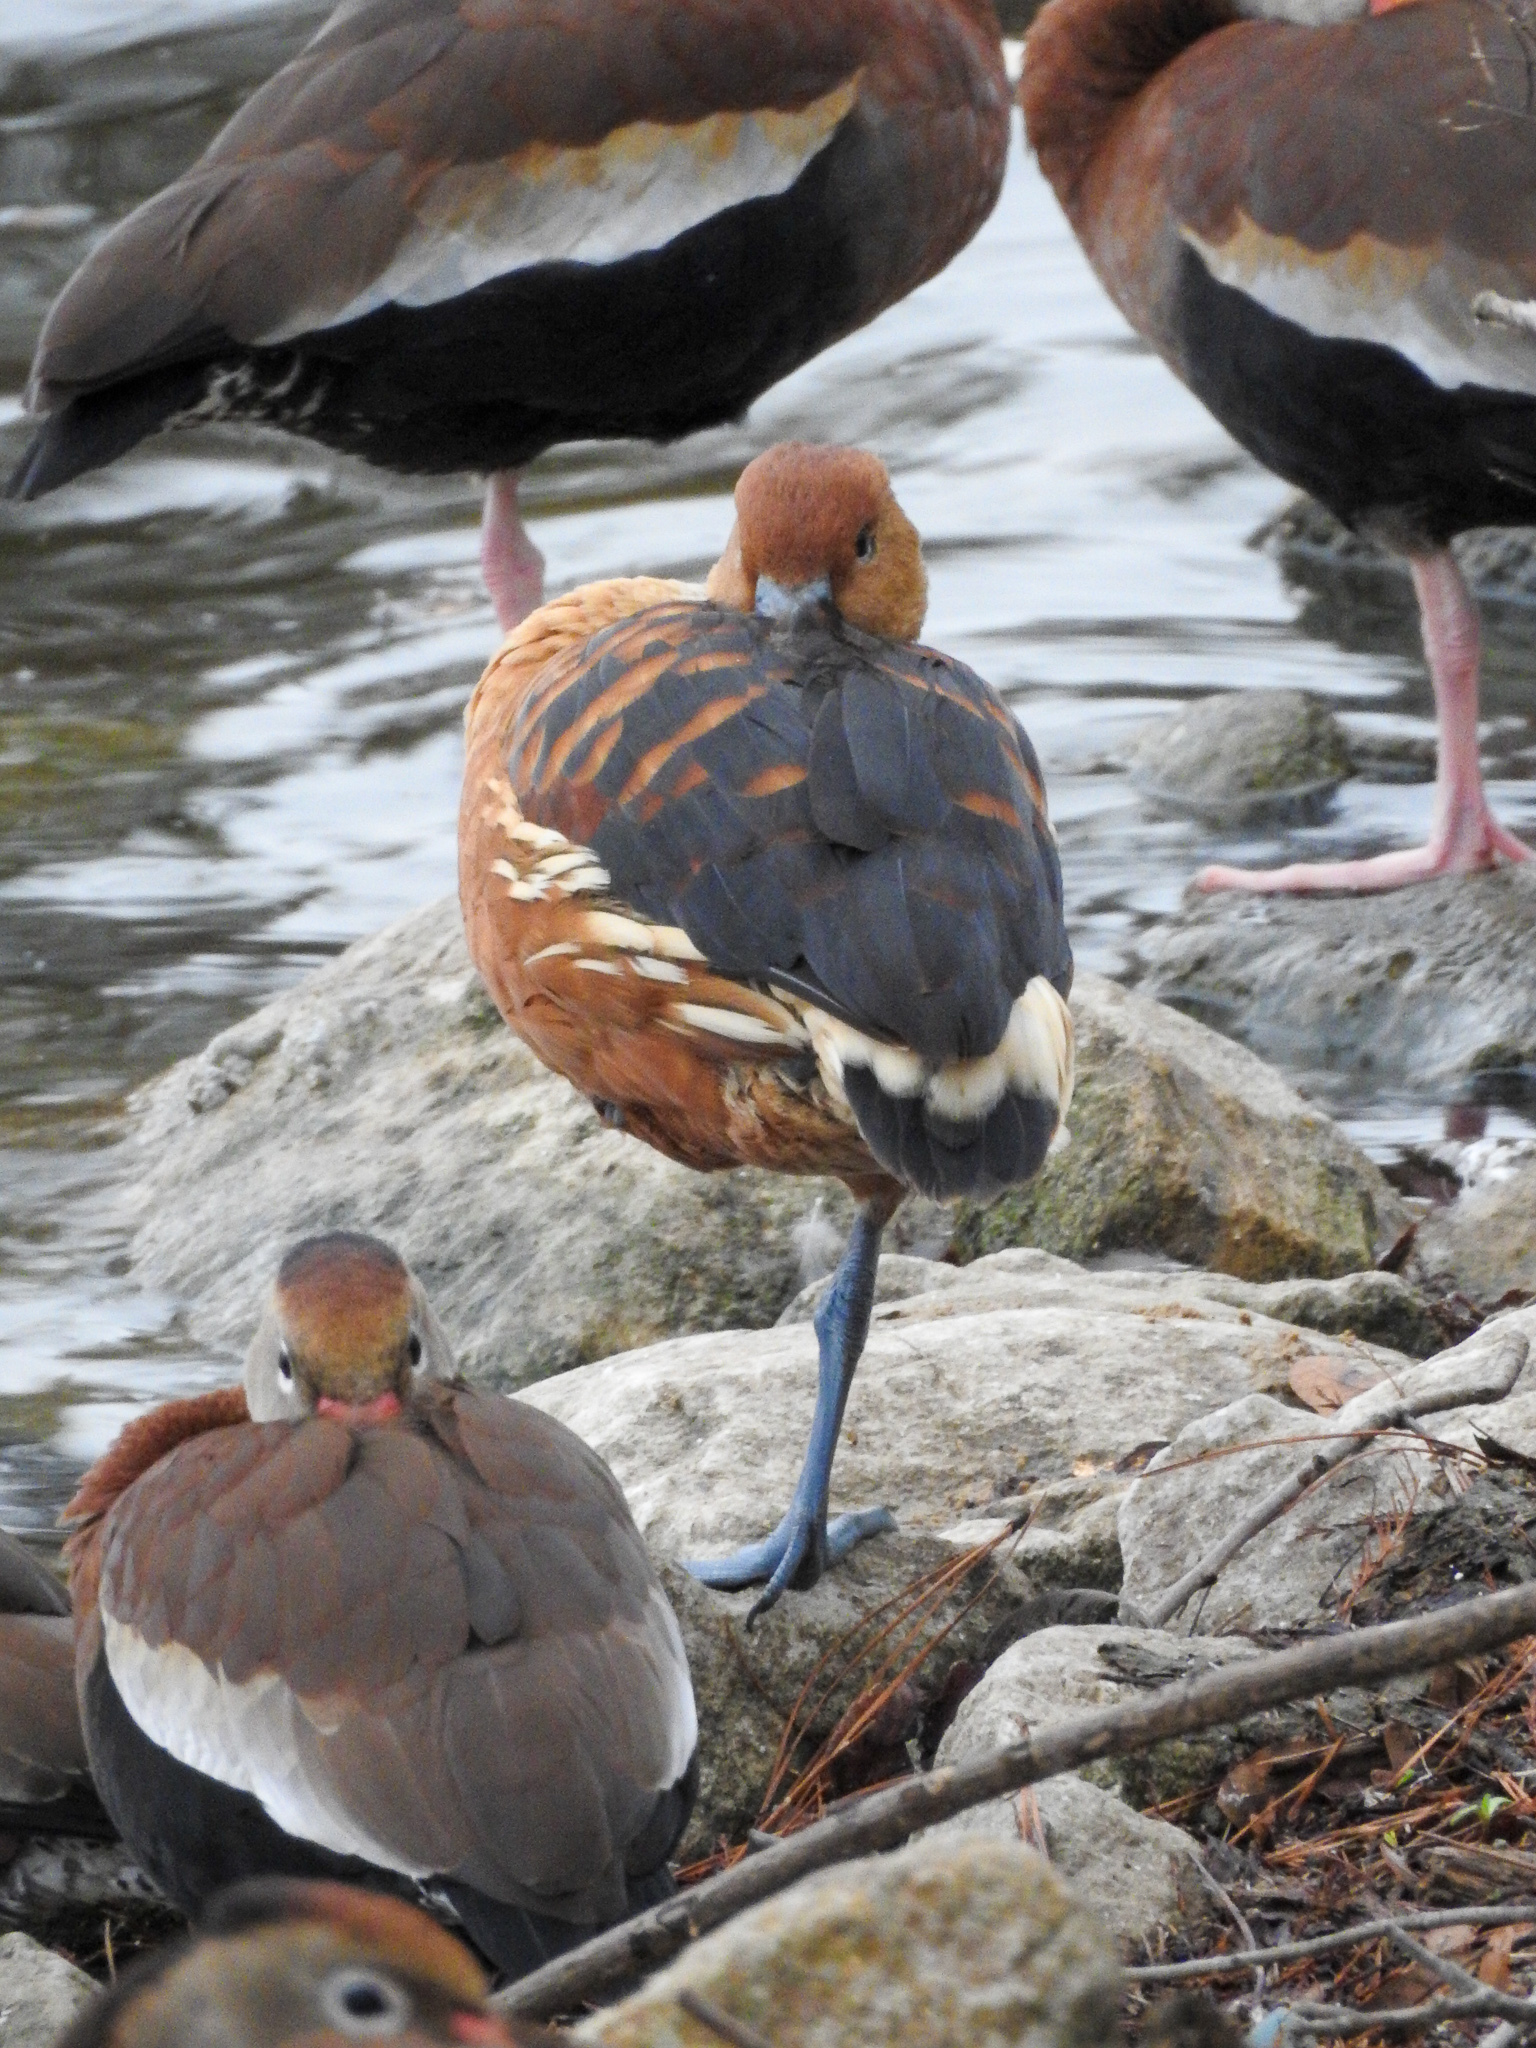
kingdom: Animalia
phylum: Chordata
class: Aves
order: Anseriformes
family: Anatidae
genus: Dendrocygna
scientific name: Dendrocygna bicolor
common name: Fulvous whistling duck
